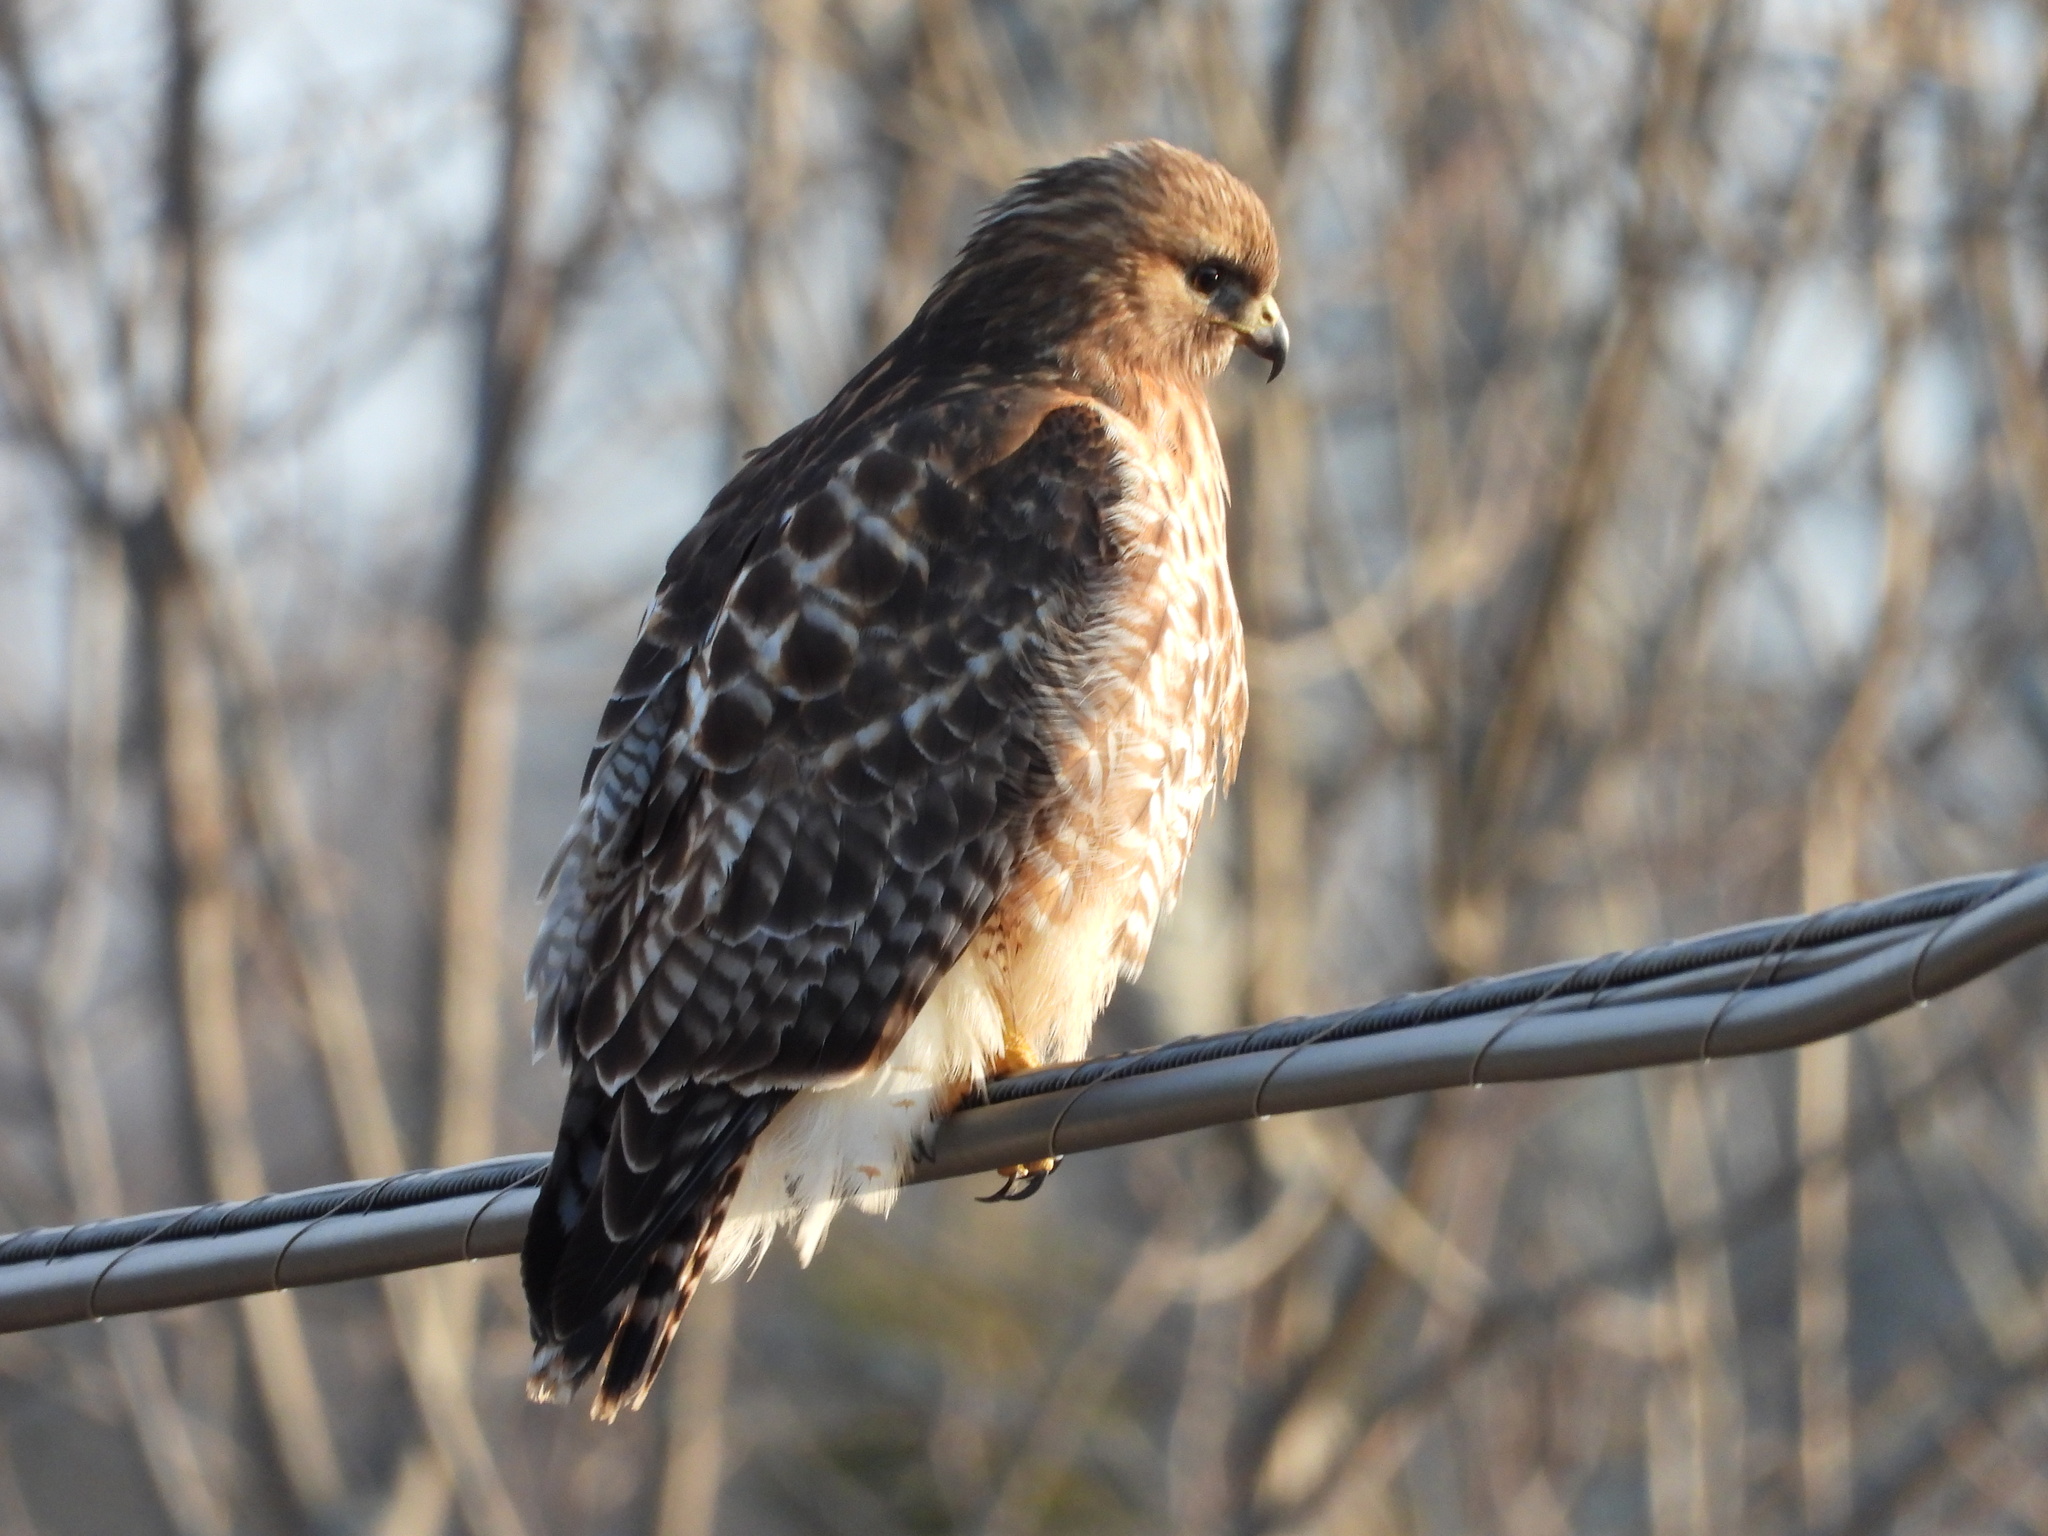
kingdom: Animalia
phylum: Chordata
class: Aves
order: Accipitriformes
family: Accipitridae
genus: Buteo
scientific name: Buteo
